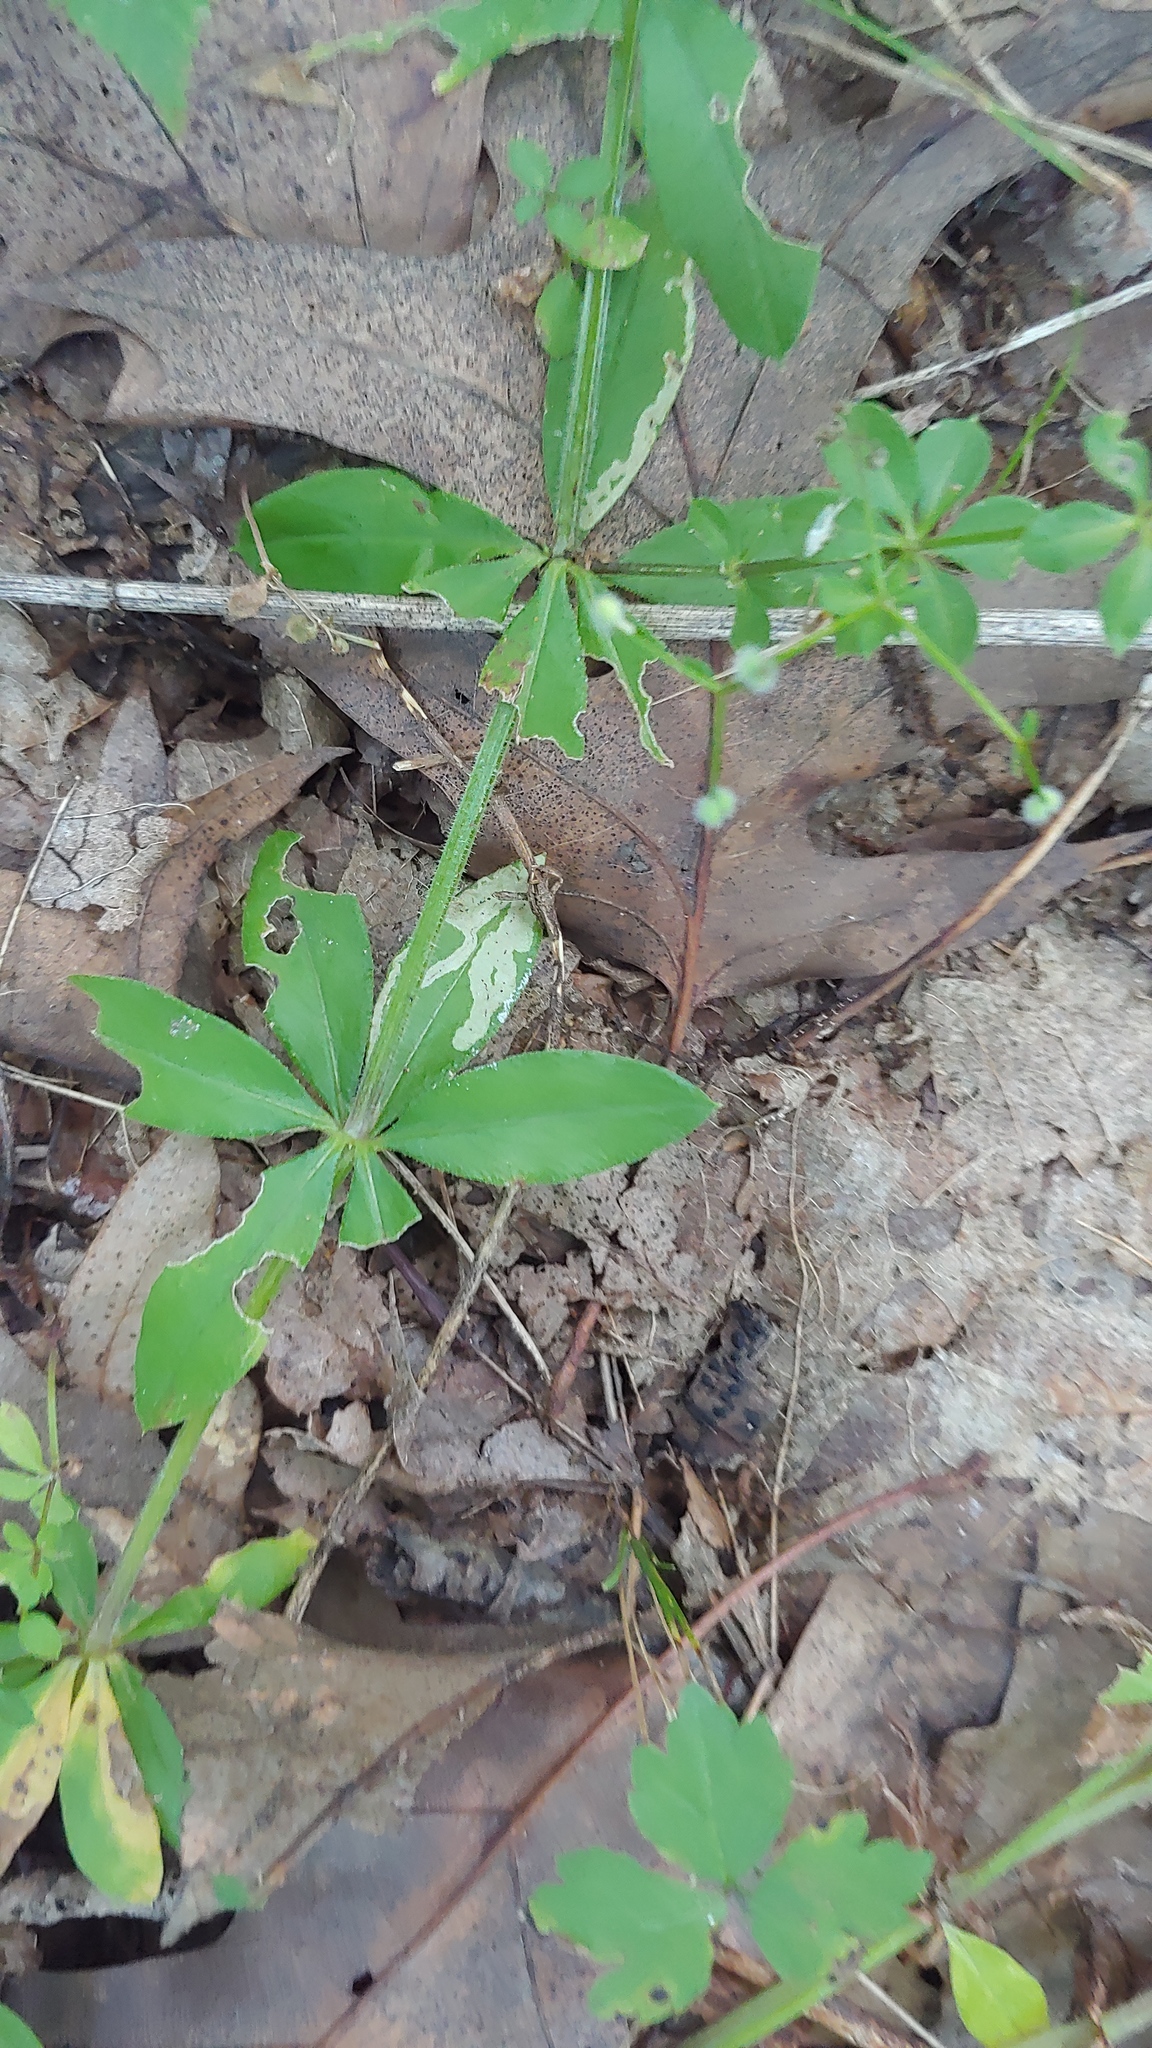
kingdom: Animalia
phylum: Arthropoda
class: Insecta
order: Diptera
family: Agromyzidae
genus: Liriomyza
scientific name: Liriomyza galiivora
